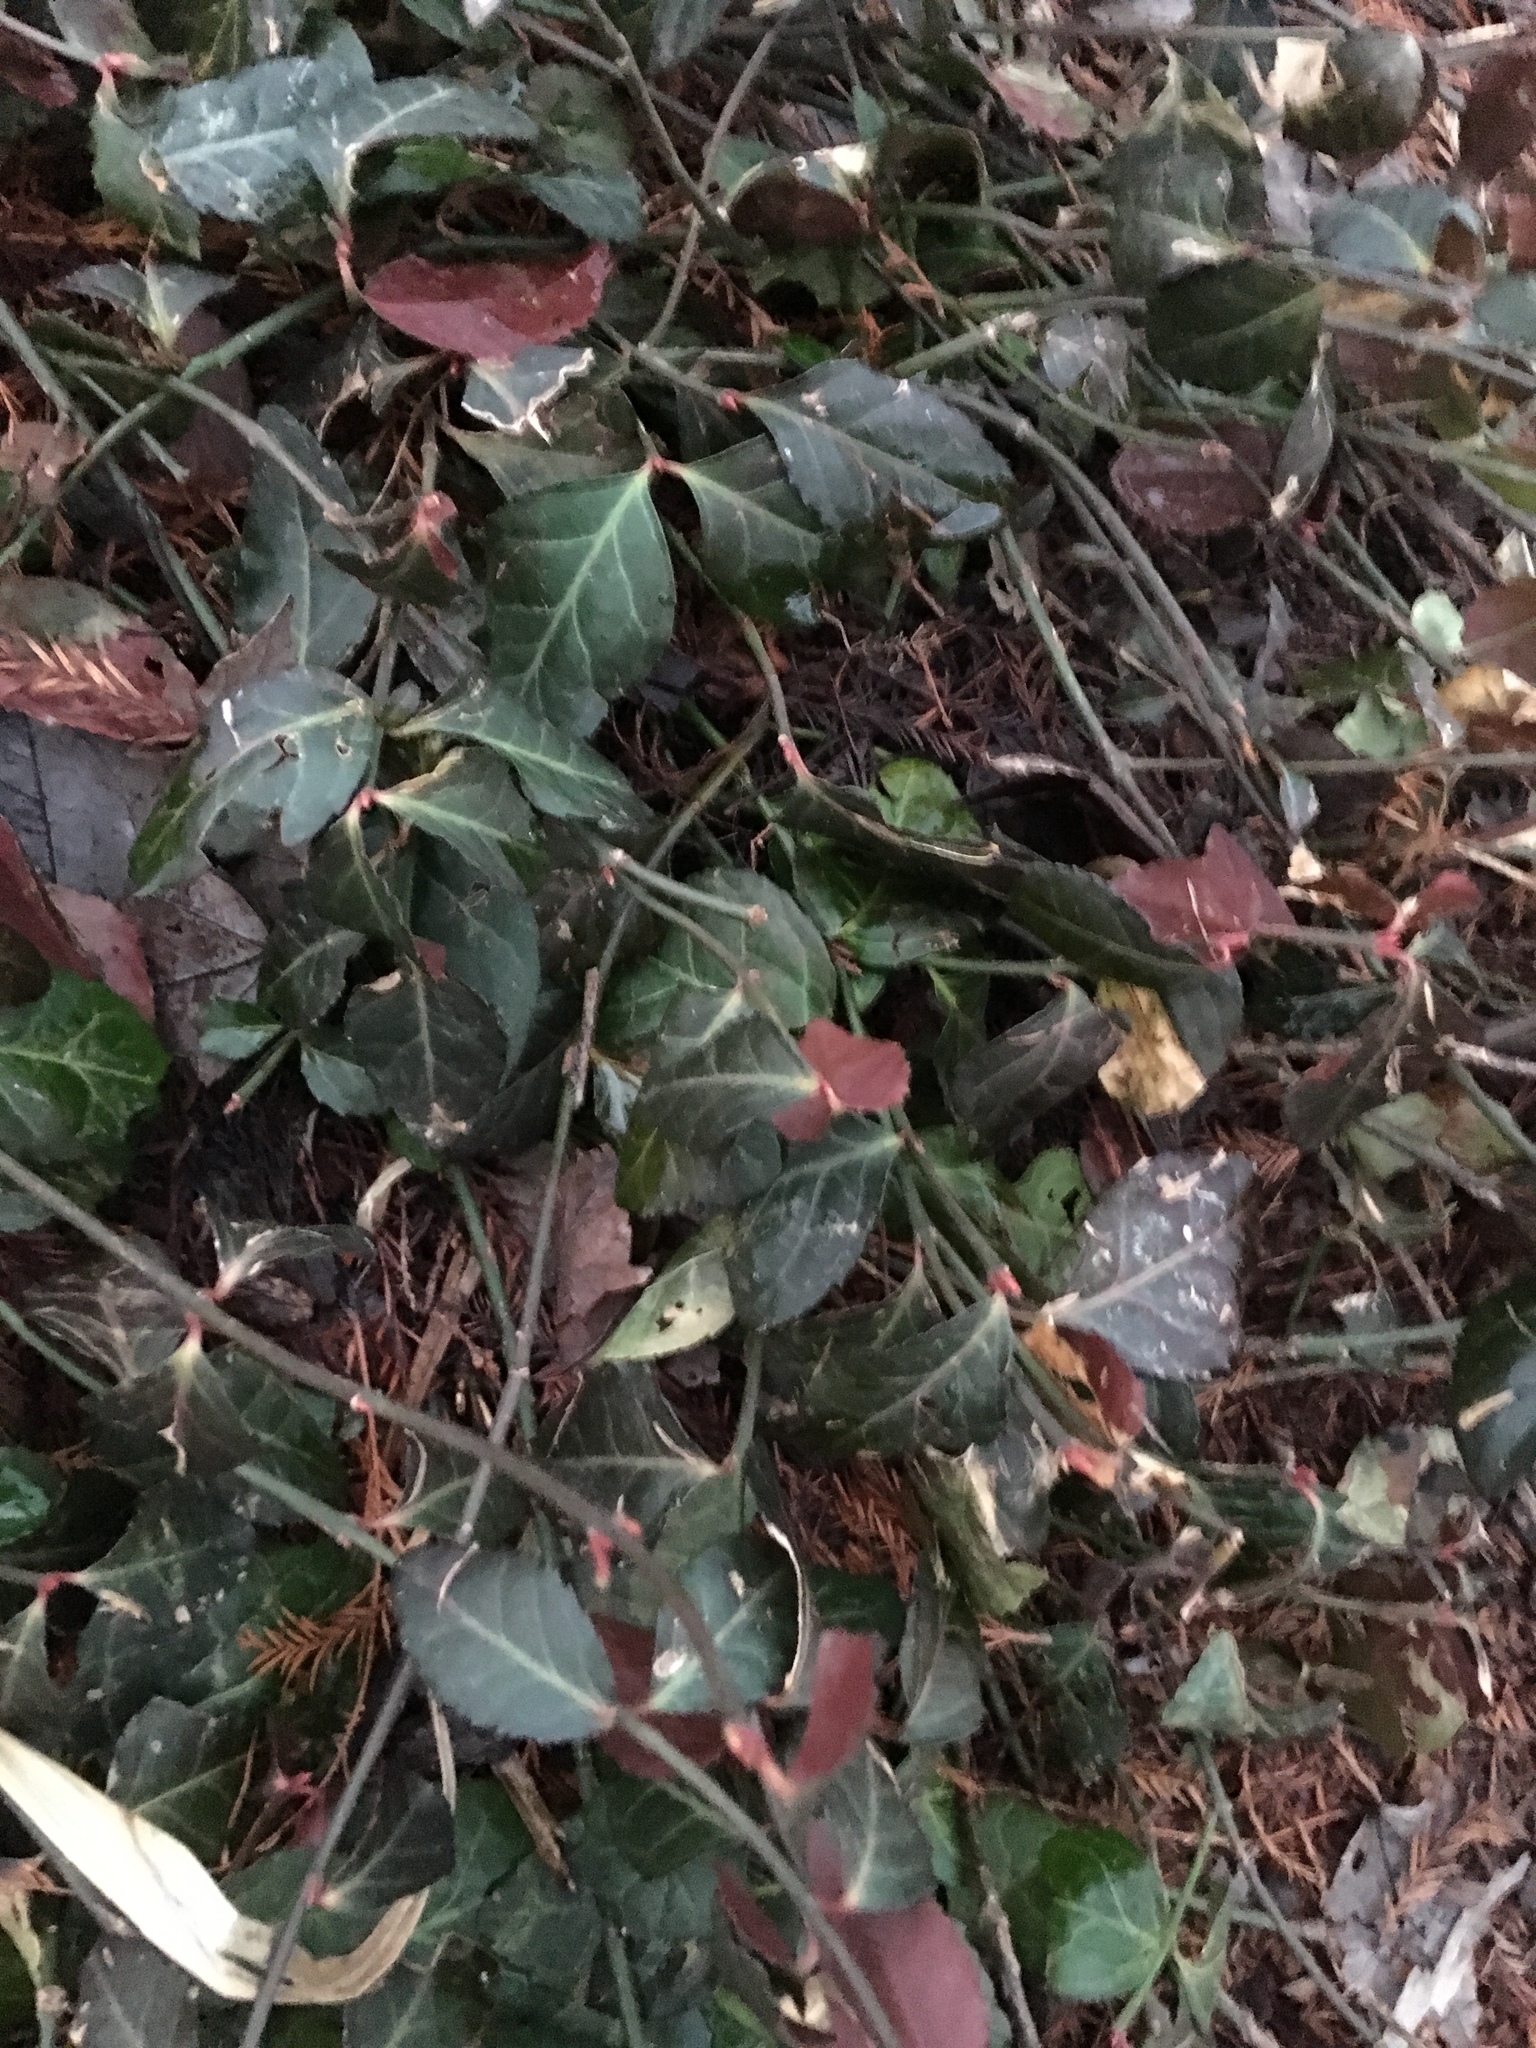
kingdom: Plantae
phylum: Tracheophyta
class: Magnoliopsida
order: Celastrales
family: Celastraceae
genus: Euonymus
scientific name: Euonymus fortunei
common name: Climbing euonymus
